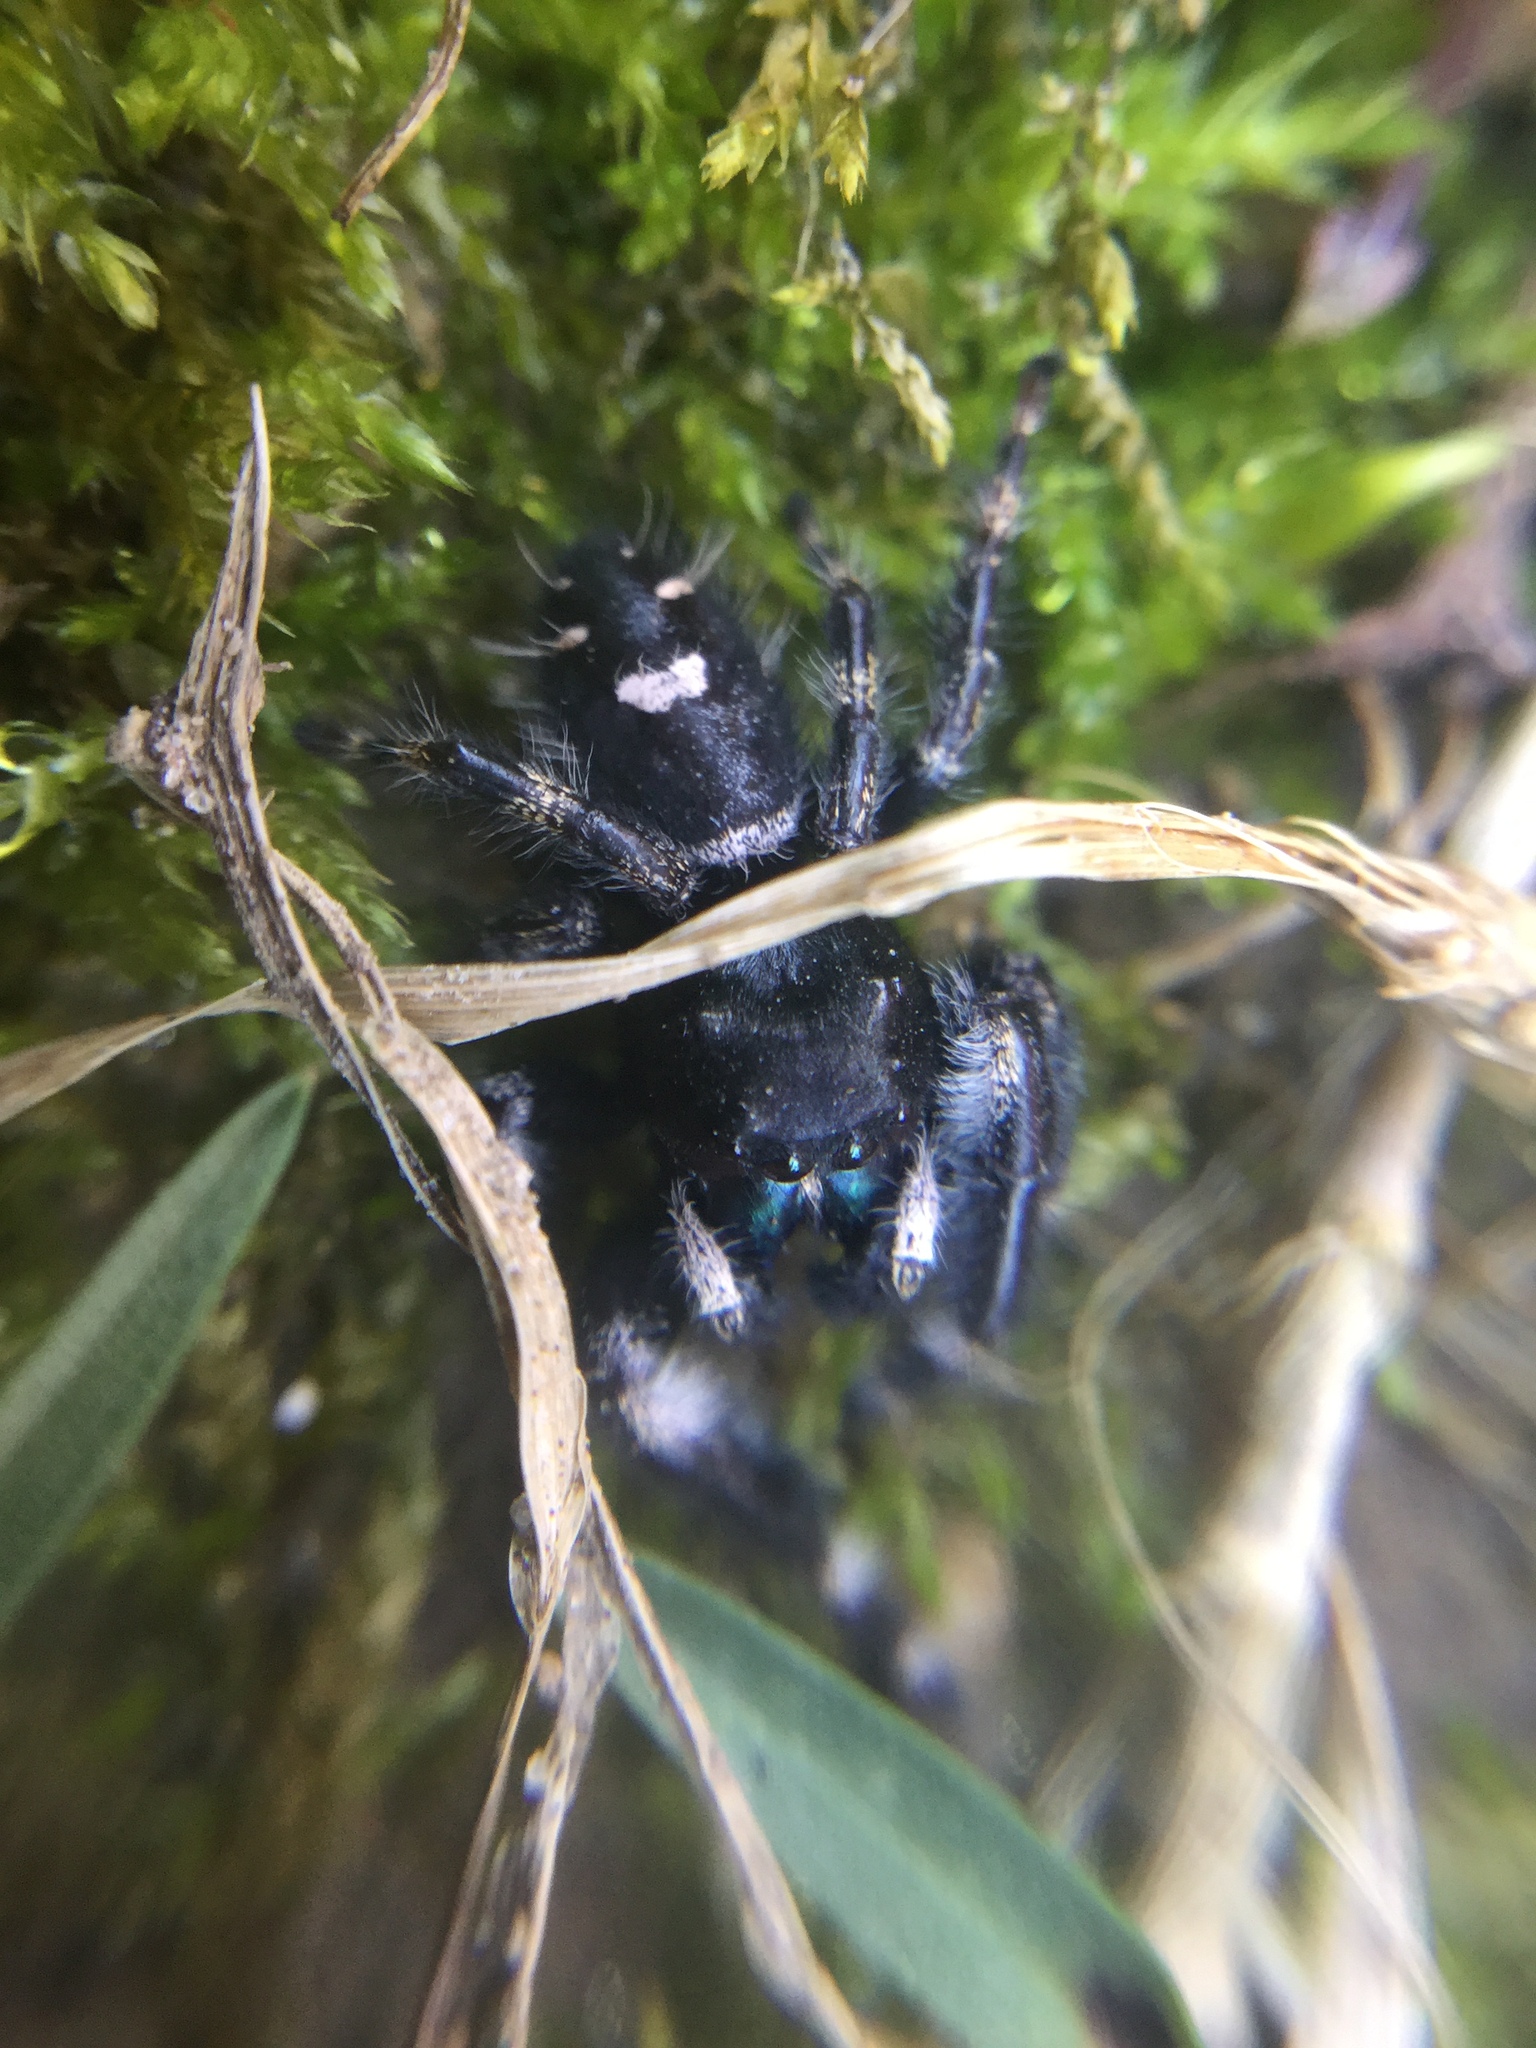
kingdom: Animalia
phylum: Arthropoda
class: Arachnida
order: Araneae
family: Salticidae
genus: Phidippus
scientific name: Phidippus audax
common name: Bold jumper
